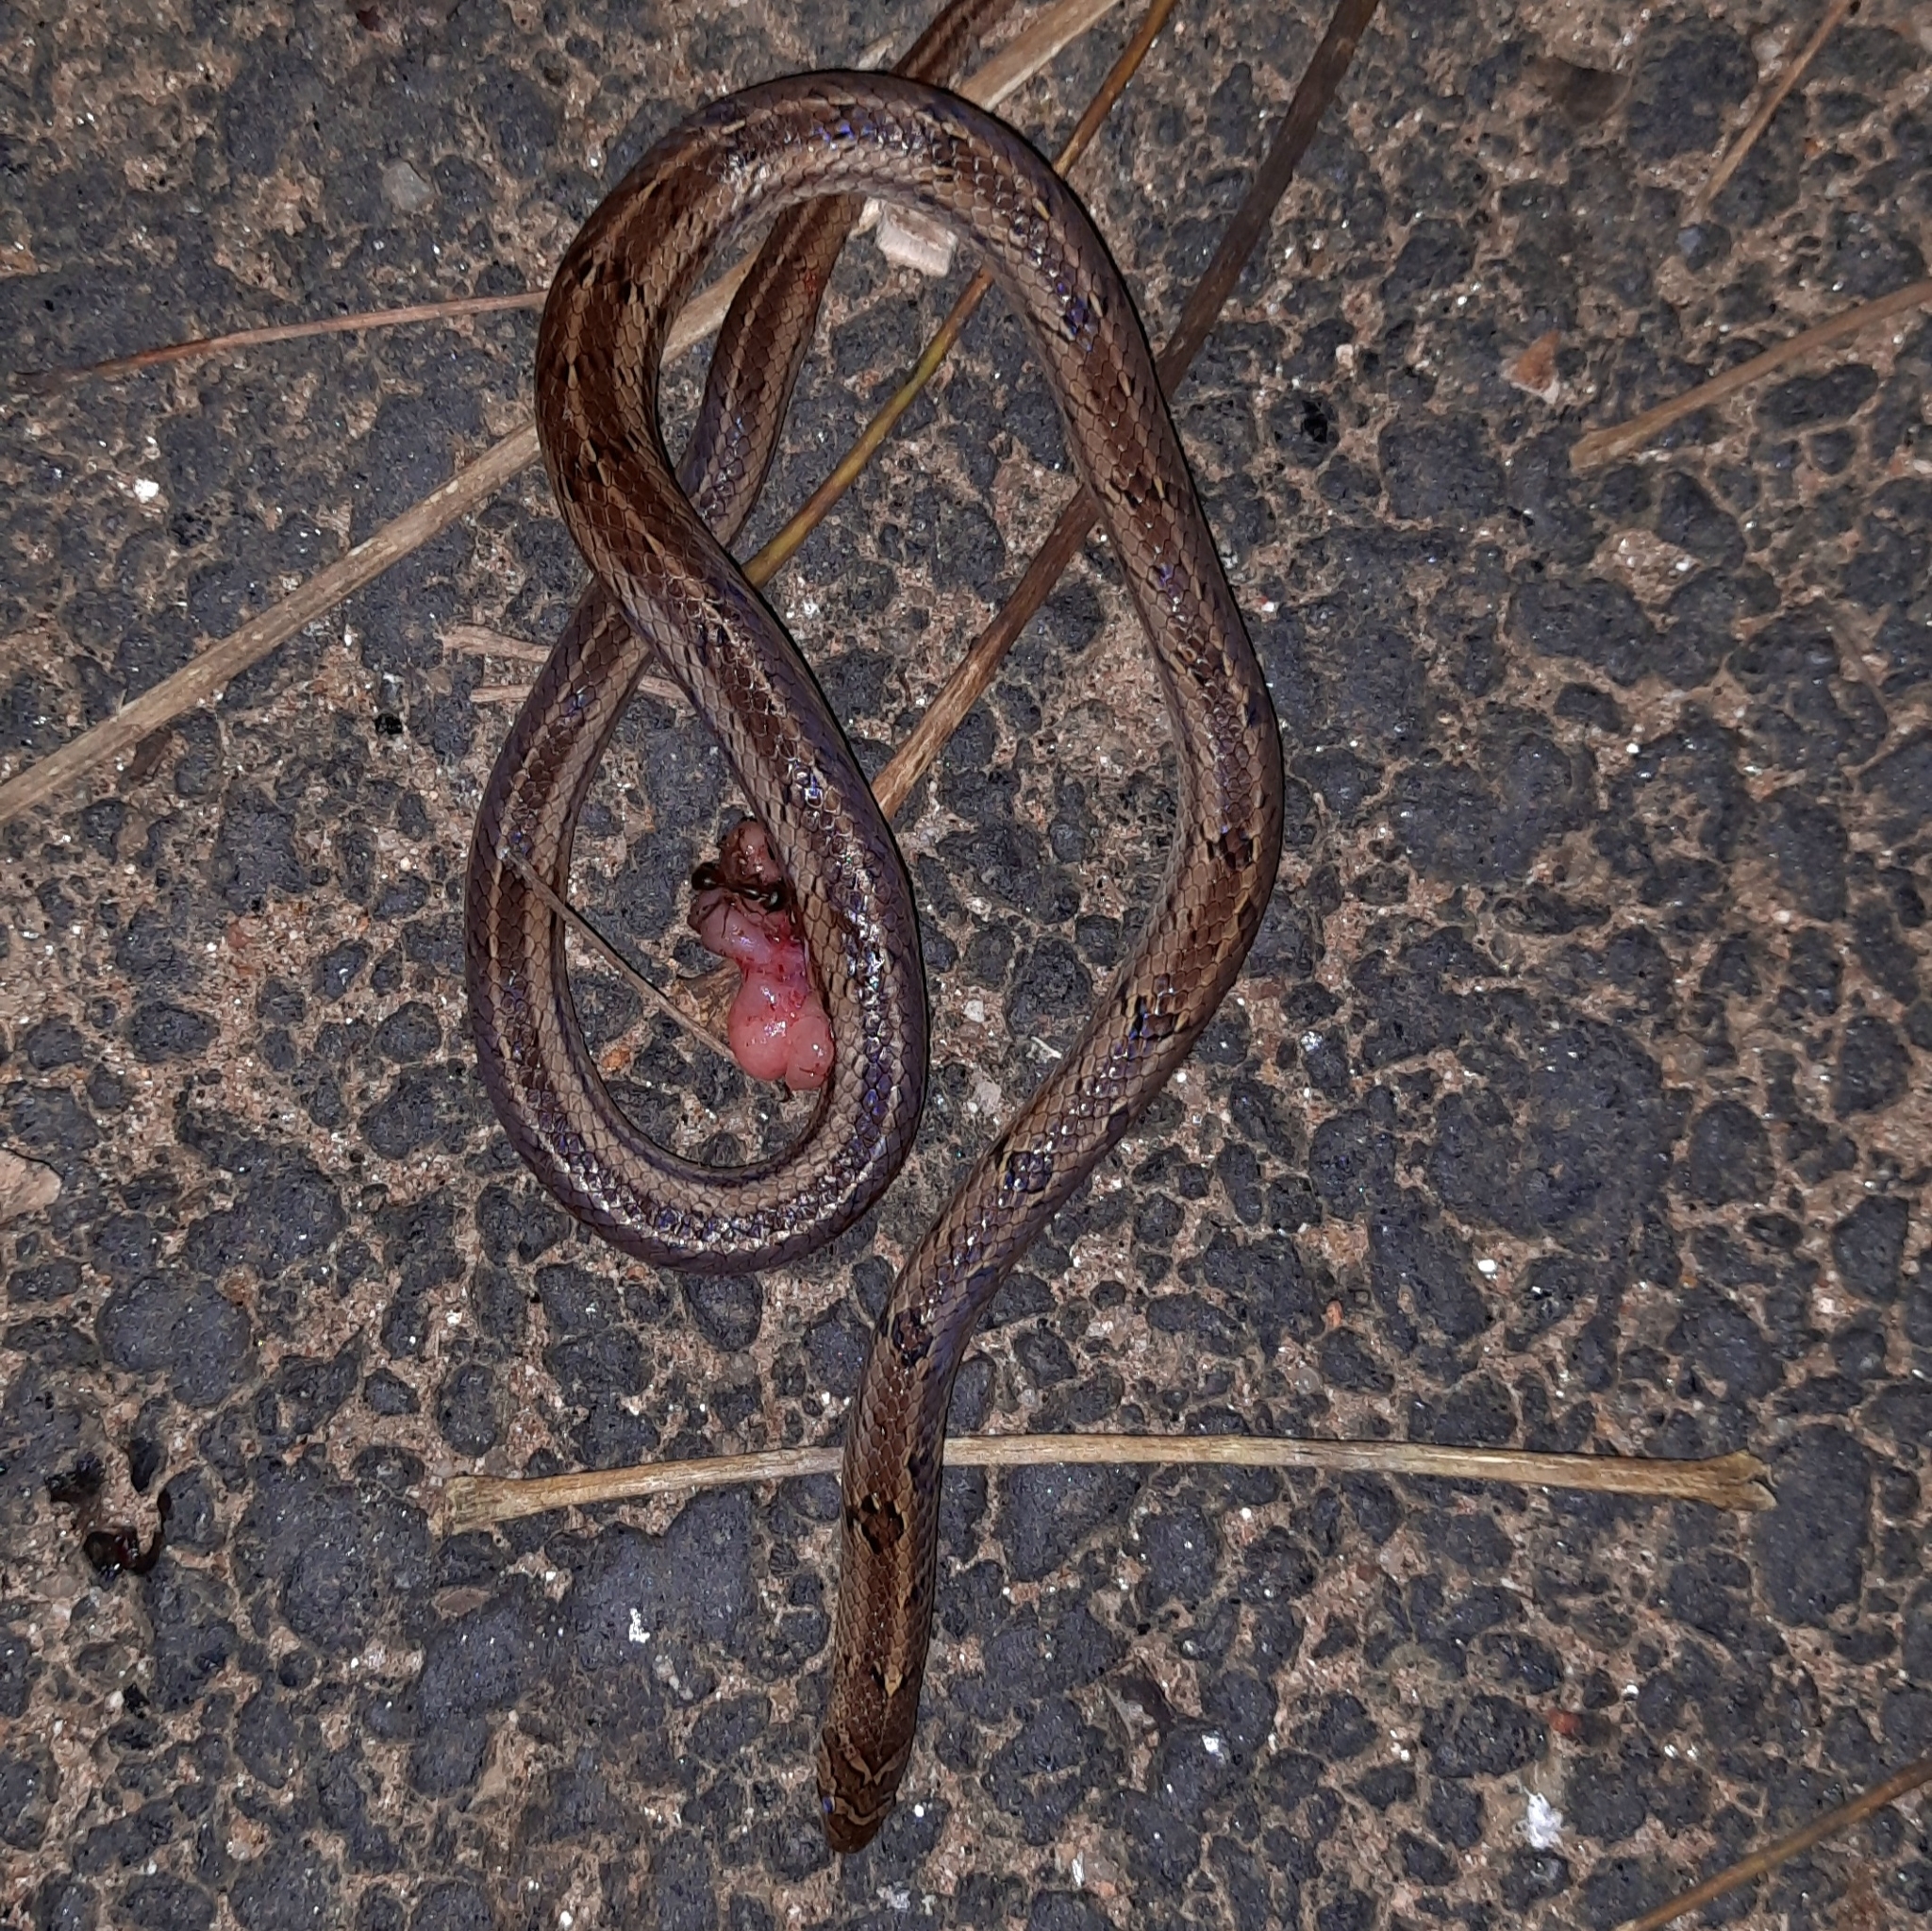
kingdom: Animalia
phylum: Chordata
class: Squamata
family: Colubridae
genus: Oligodon
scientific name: Oligodon taeniolatus
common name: Loos snake
